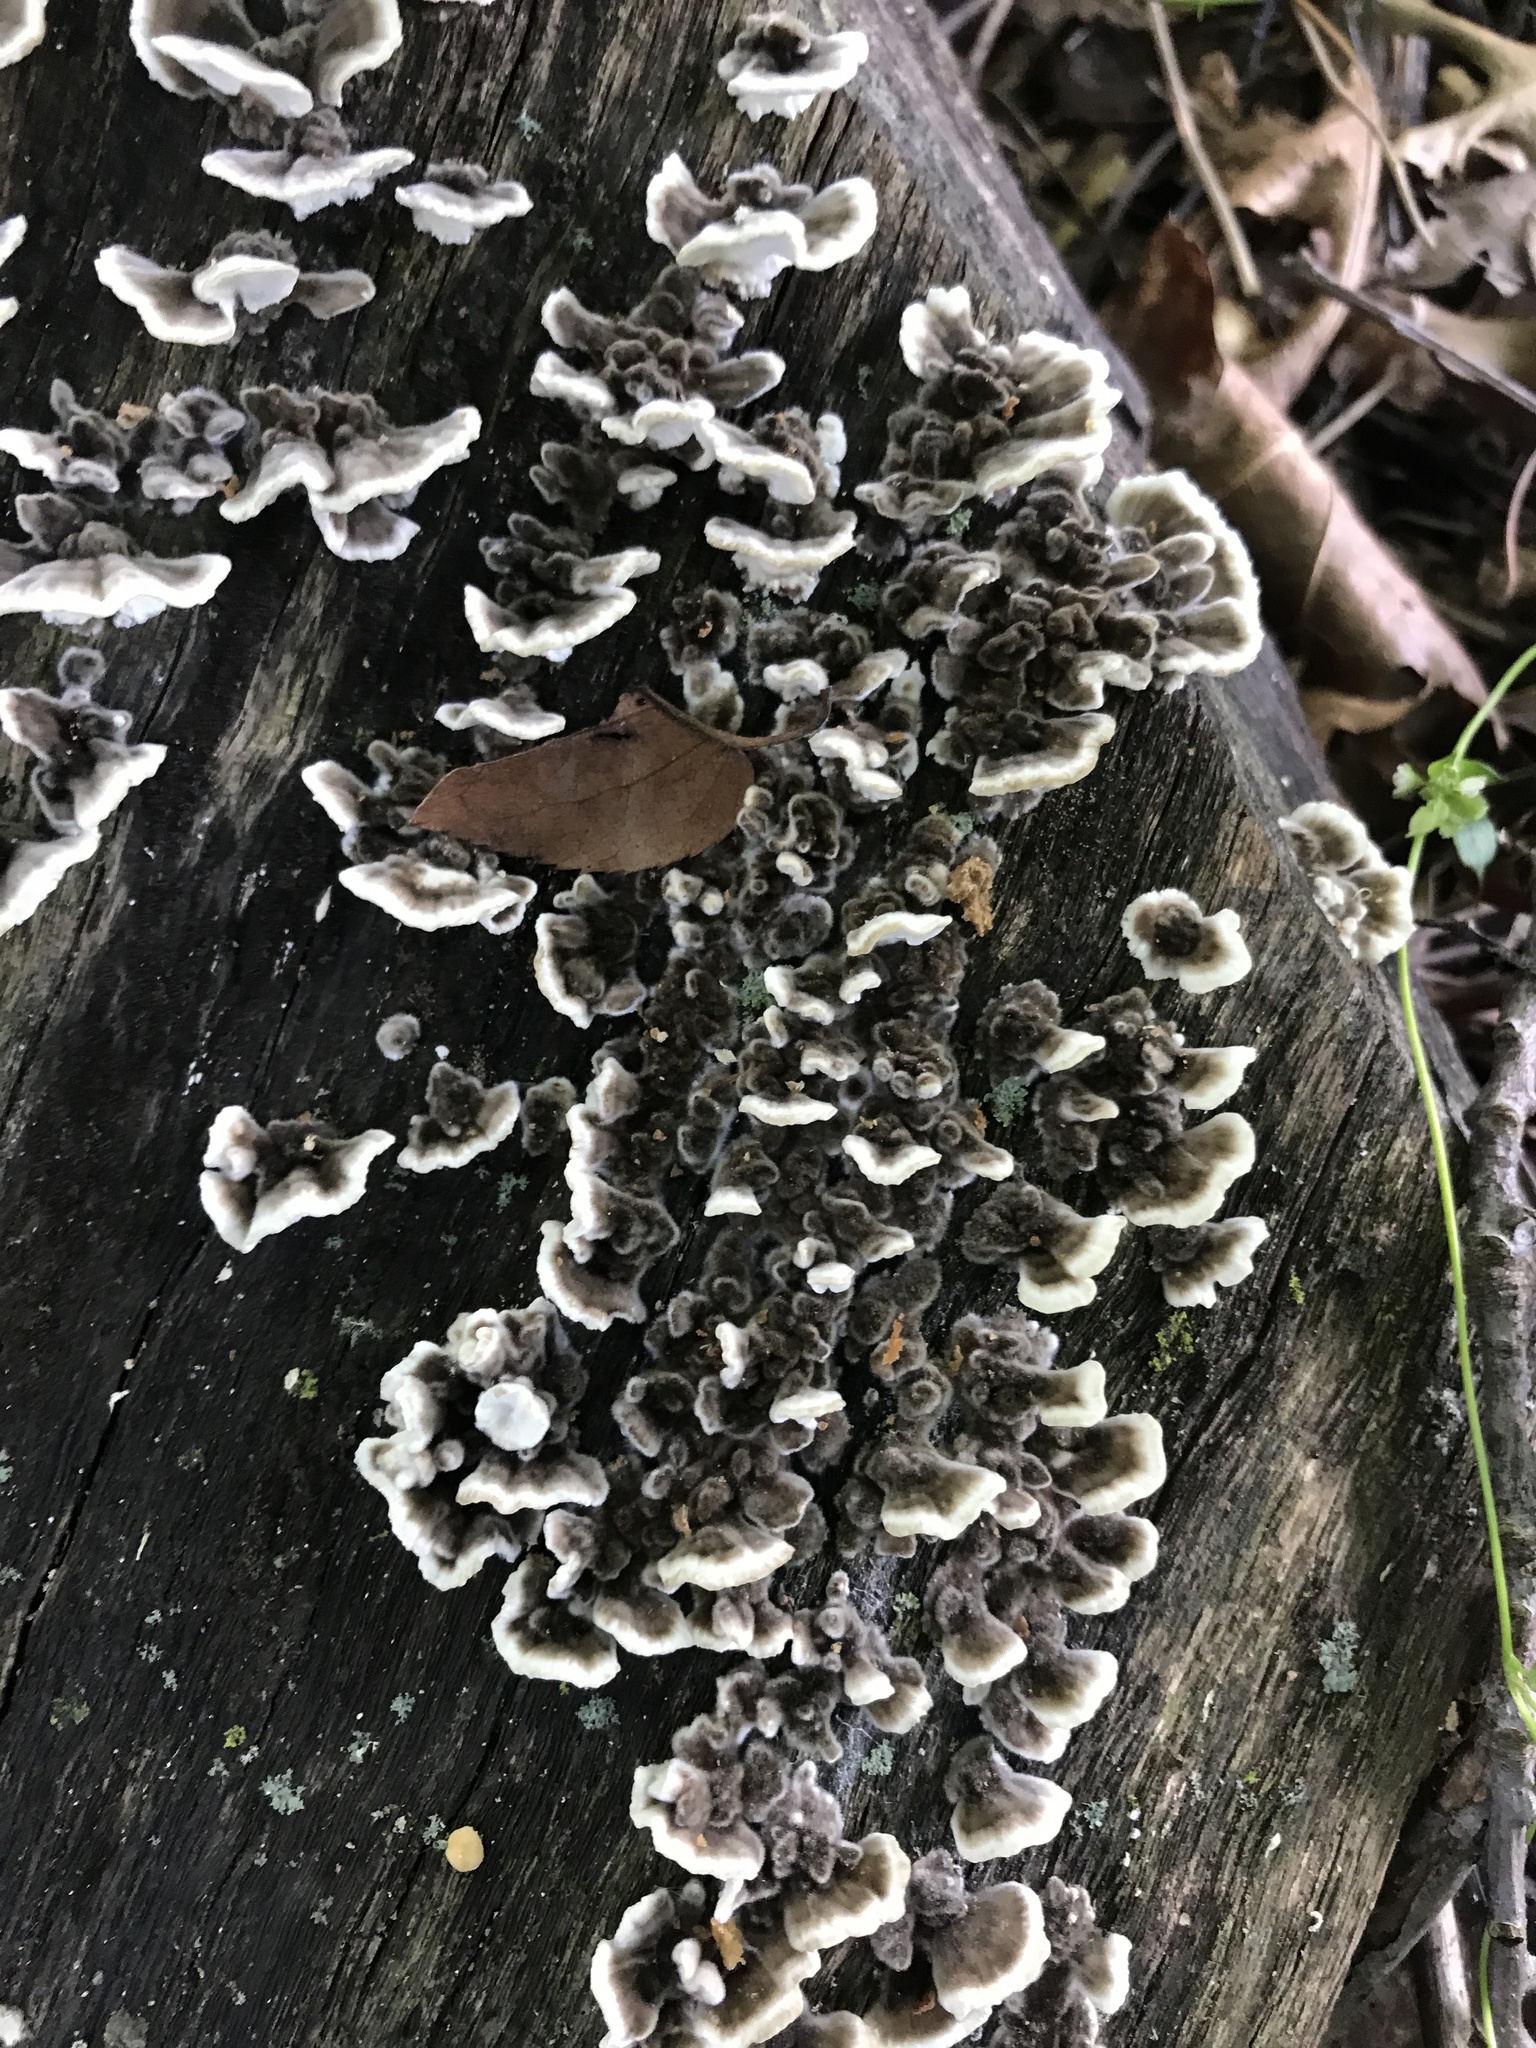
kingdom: Fungi
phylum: Basidiomycota
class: Agaricomycetes
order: Polyporales
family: Polyporaceae
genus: Trametes
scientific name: Trametes versicolor
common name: Turkeytail
